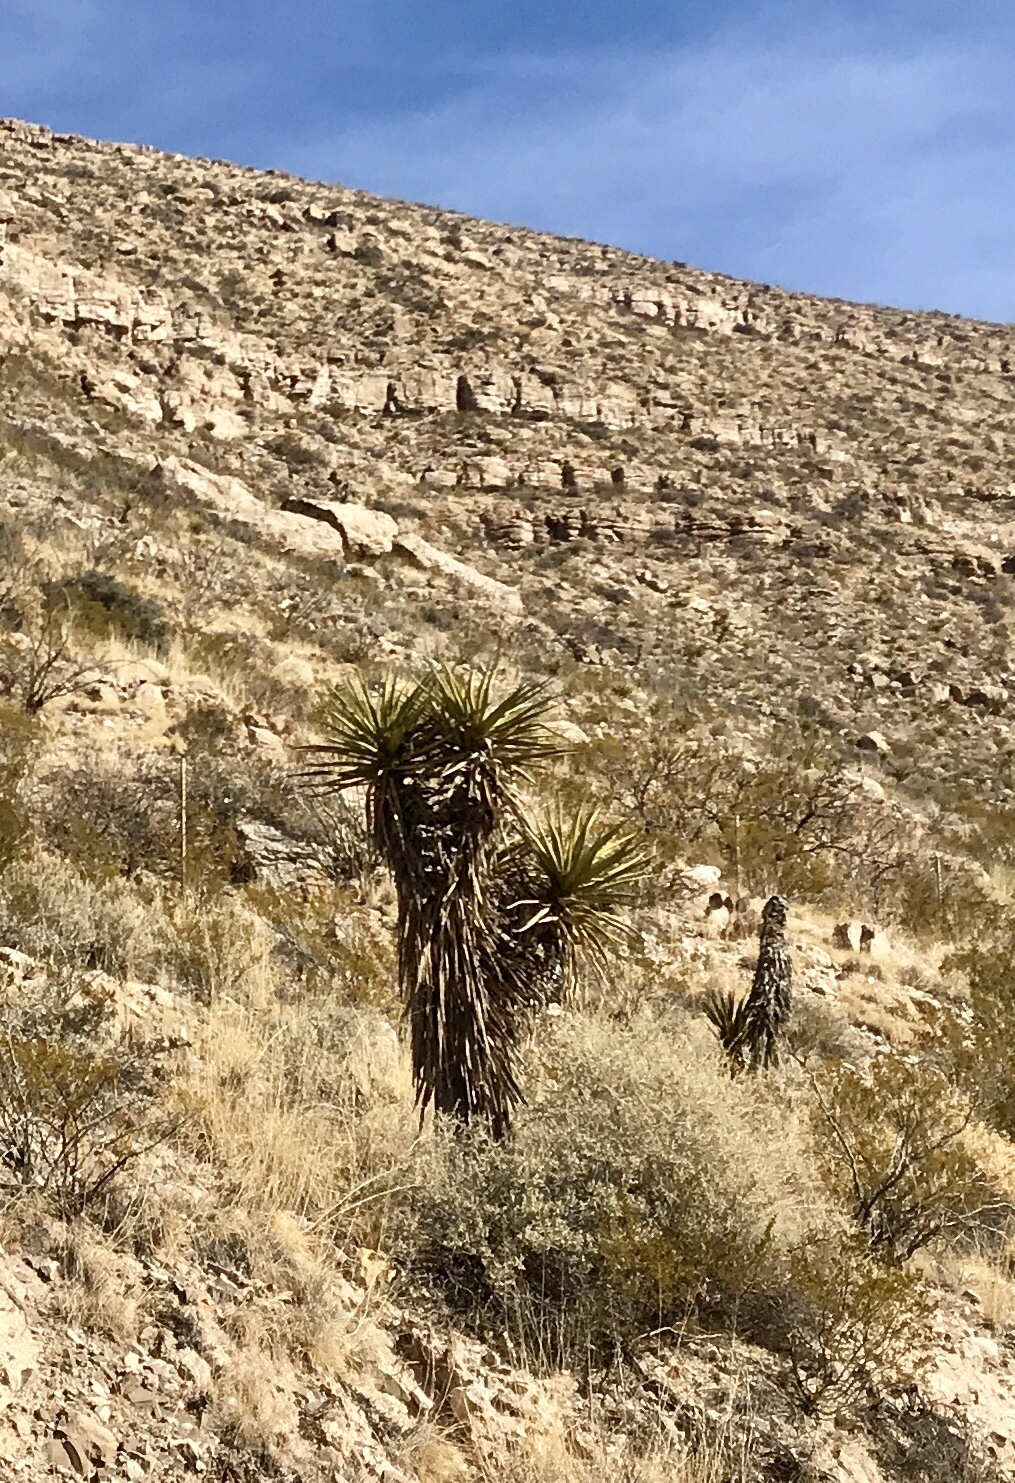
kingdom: Plantae
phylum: Tracheophyta
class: Liliopsida
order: Asparagales
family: Asparagaceae
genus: Yucca
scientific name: Yucca treculiana
